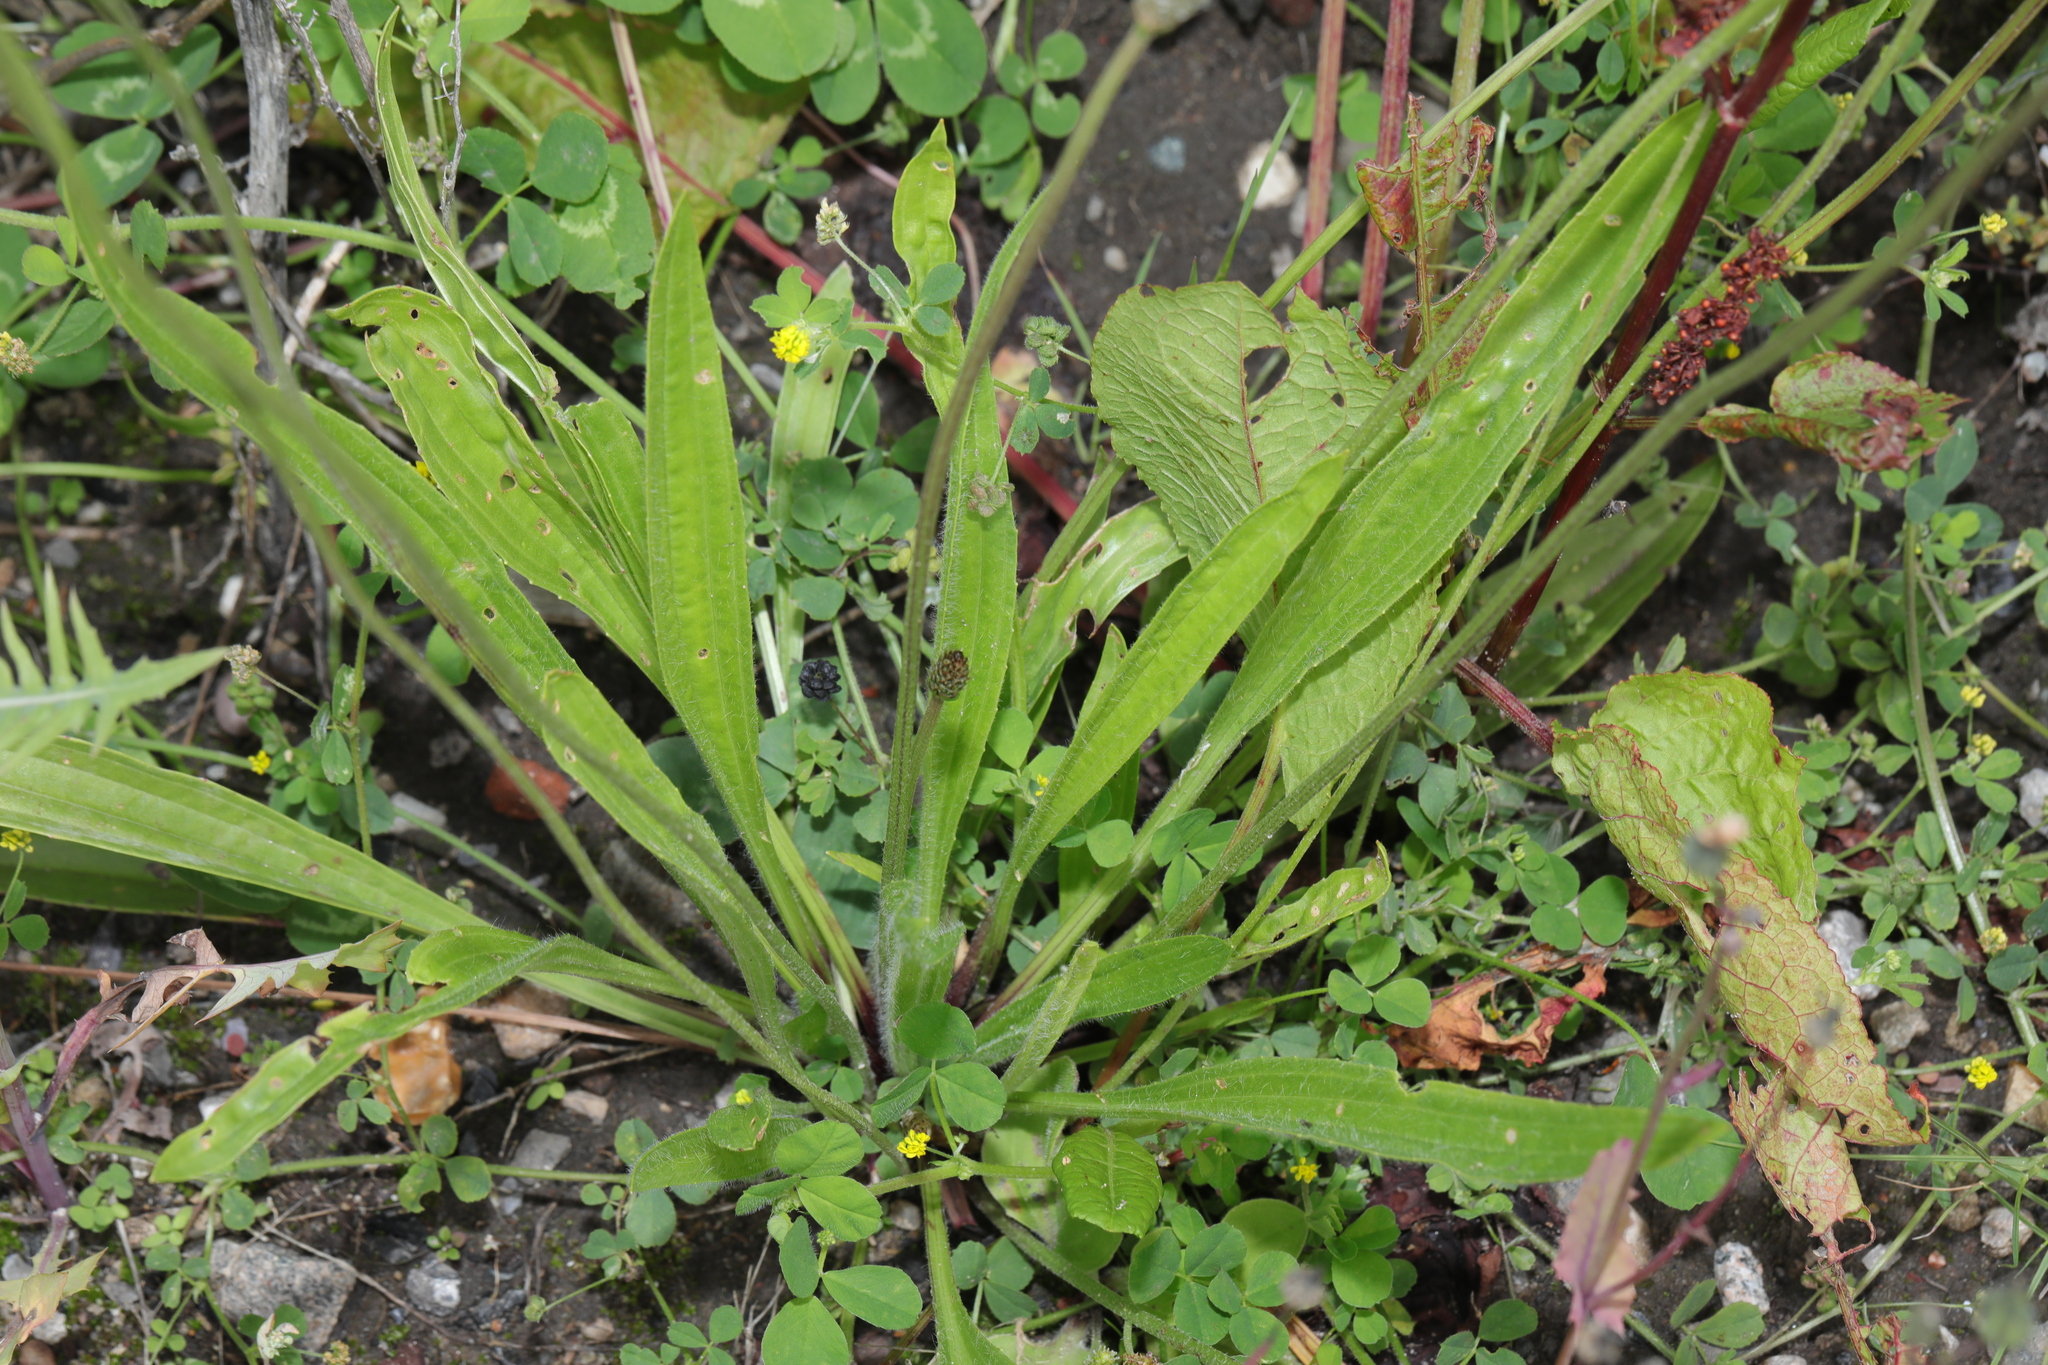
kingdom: Plantae
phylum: Tracheophyta
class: Magnoliopsida
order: Lamiales
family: Plantaginaceae
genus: Plantago
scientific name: Plantago lanceolata
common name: Ribwort plantain
